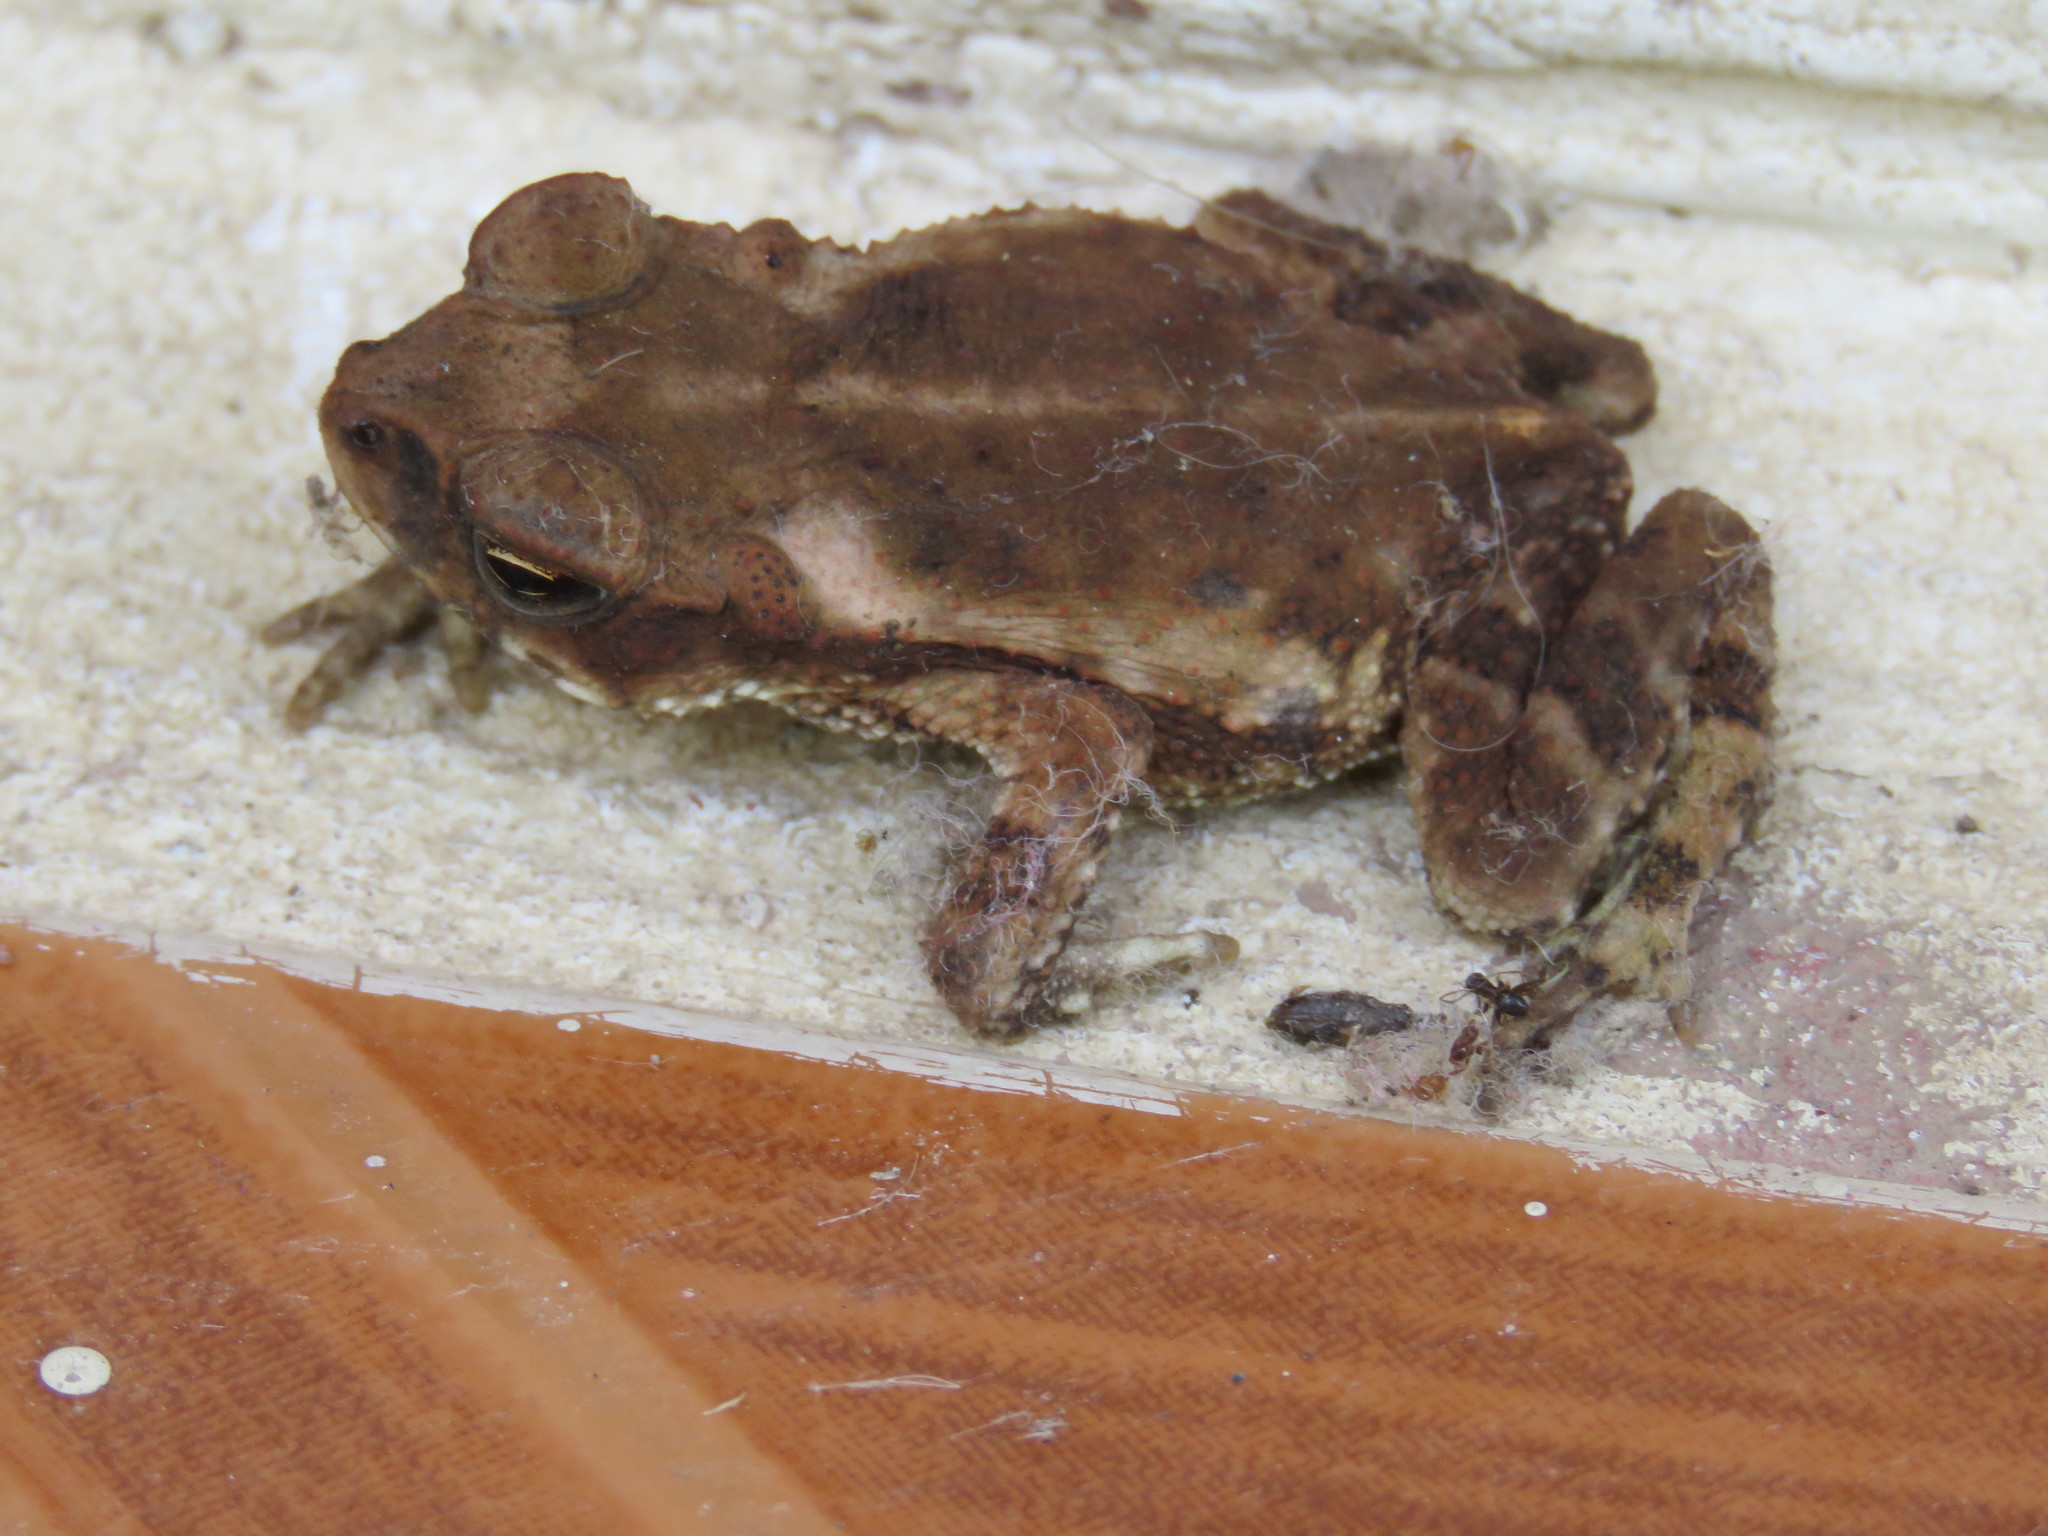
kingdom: Animalia
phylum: Chordata
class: Amphibia
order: Anura
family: Bufonidae
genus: Incilius
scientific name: Incilius luetkenii
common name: Yellow toad
